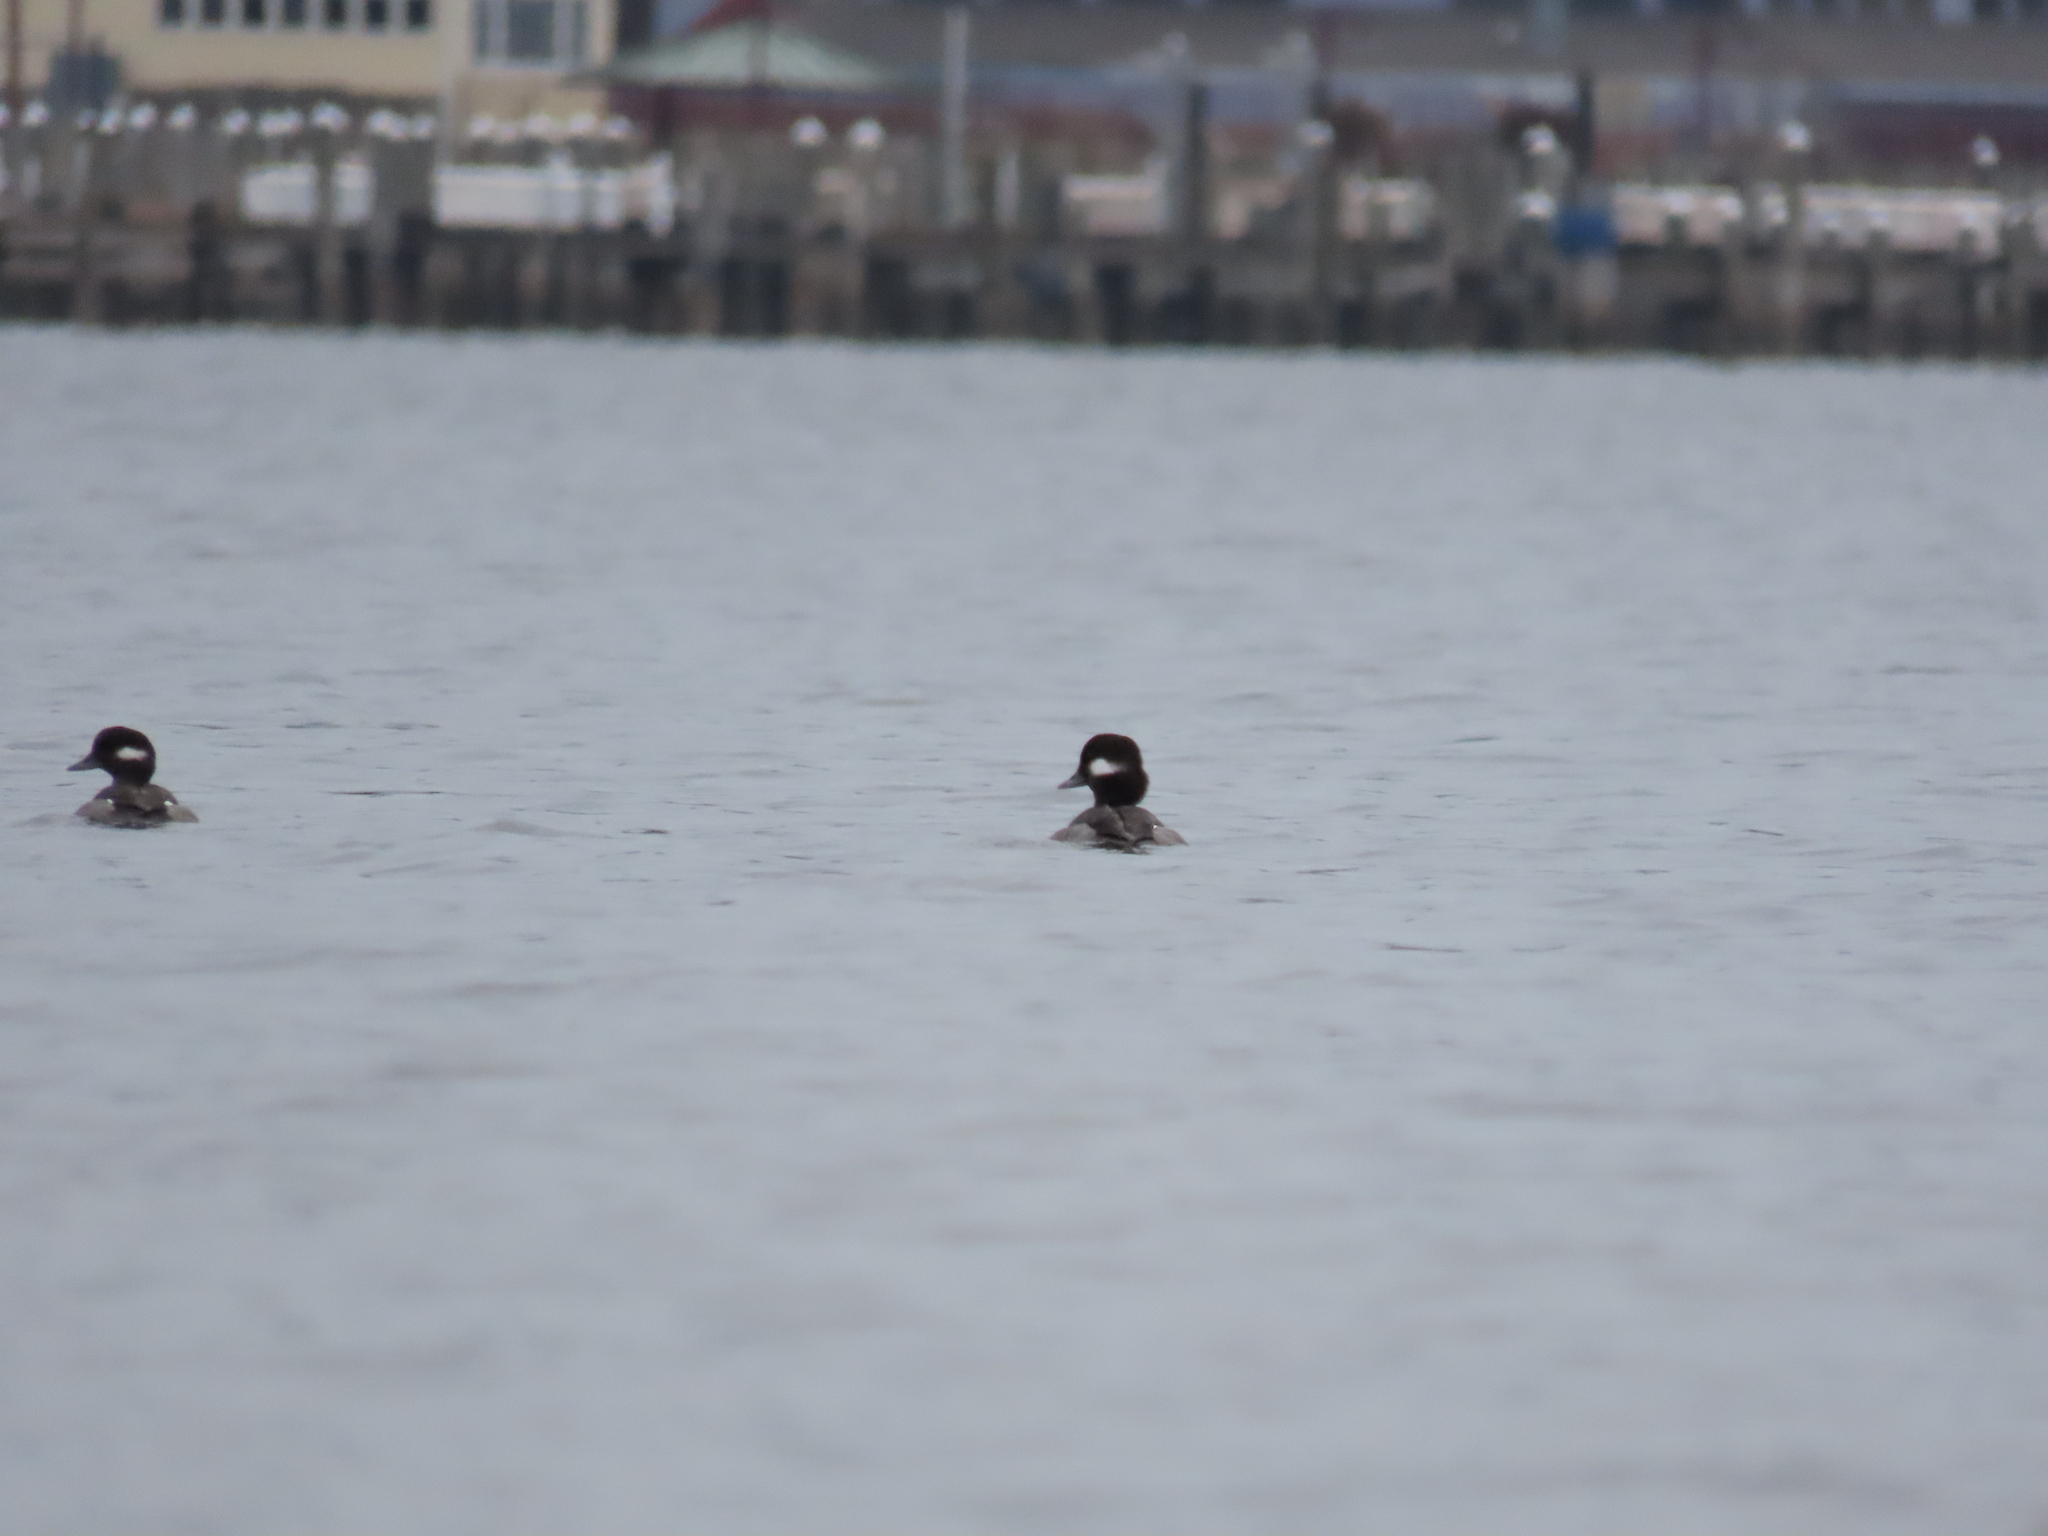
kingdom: Animalia
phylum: Chordata
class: Aves
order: Anseriformes
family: Anatidae
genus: Bucephala
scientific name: Bucephala albeola
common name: Bufflehead
